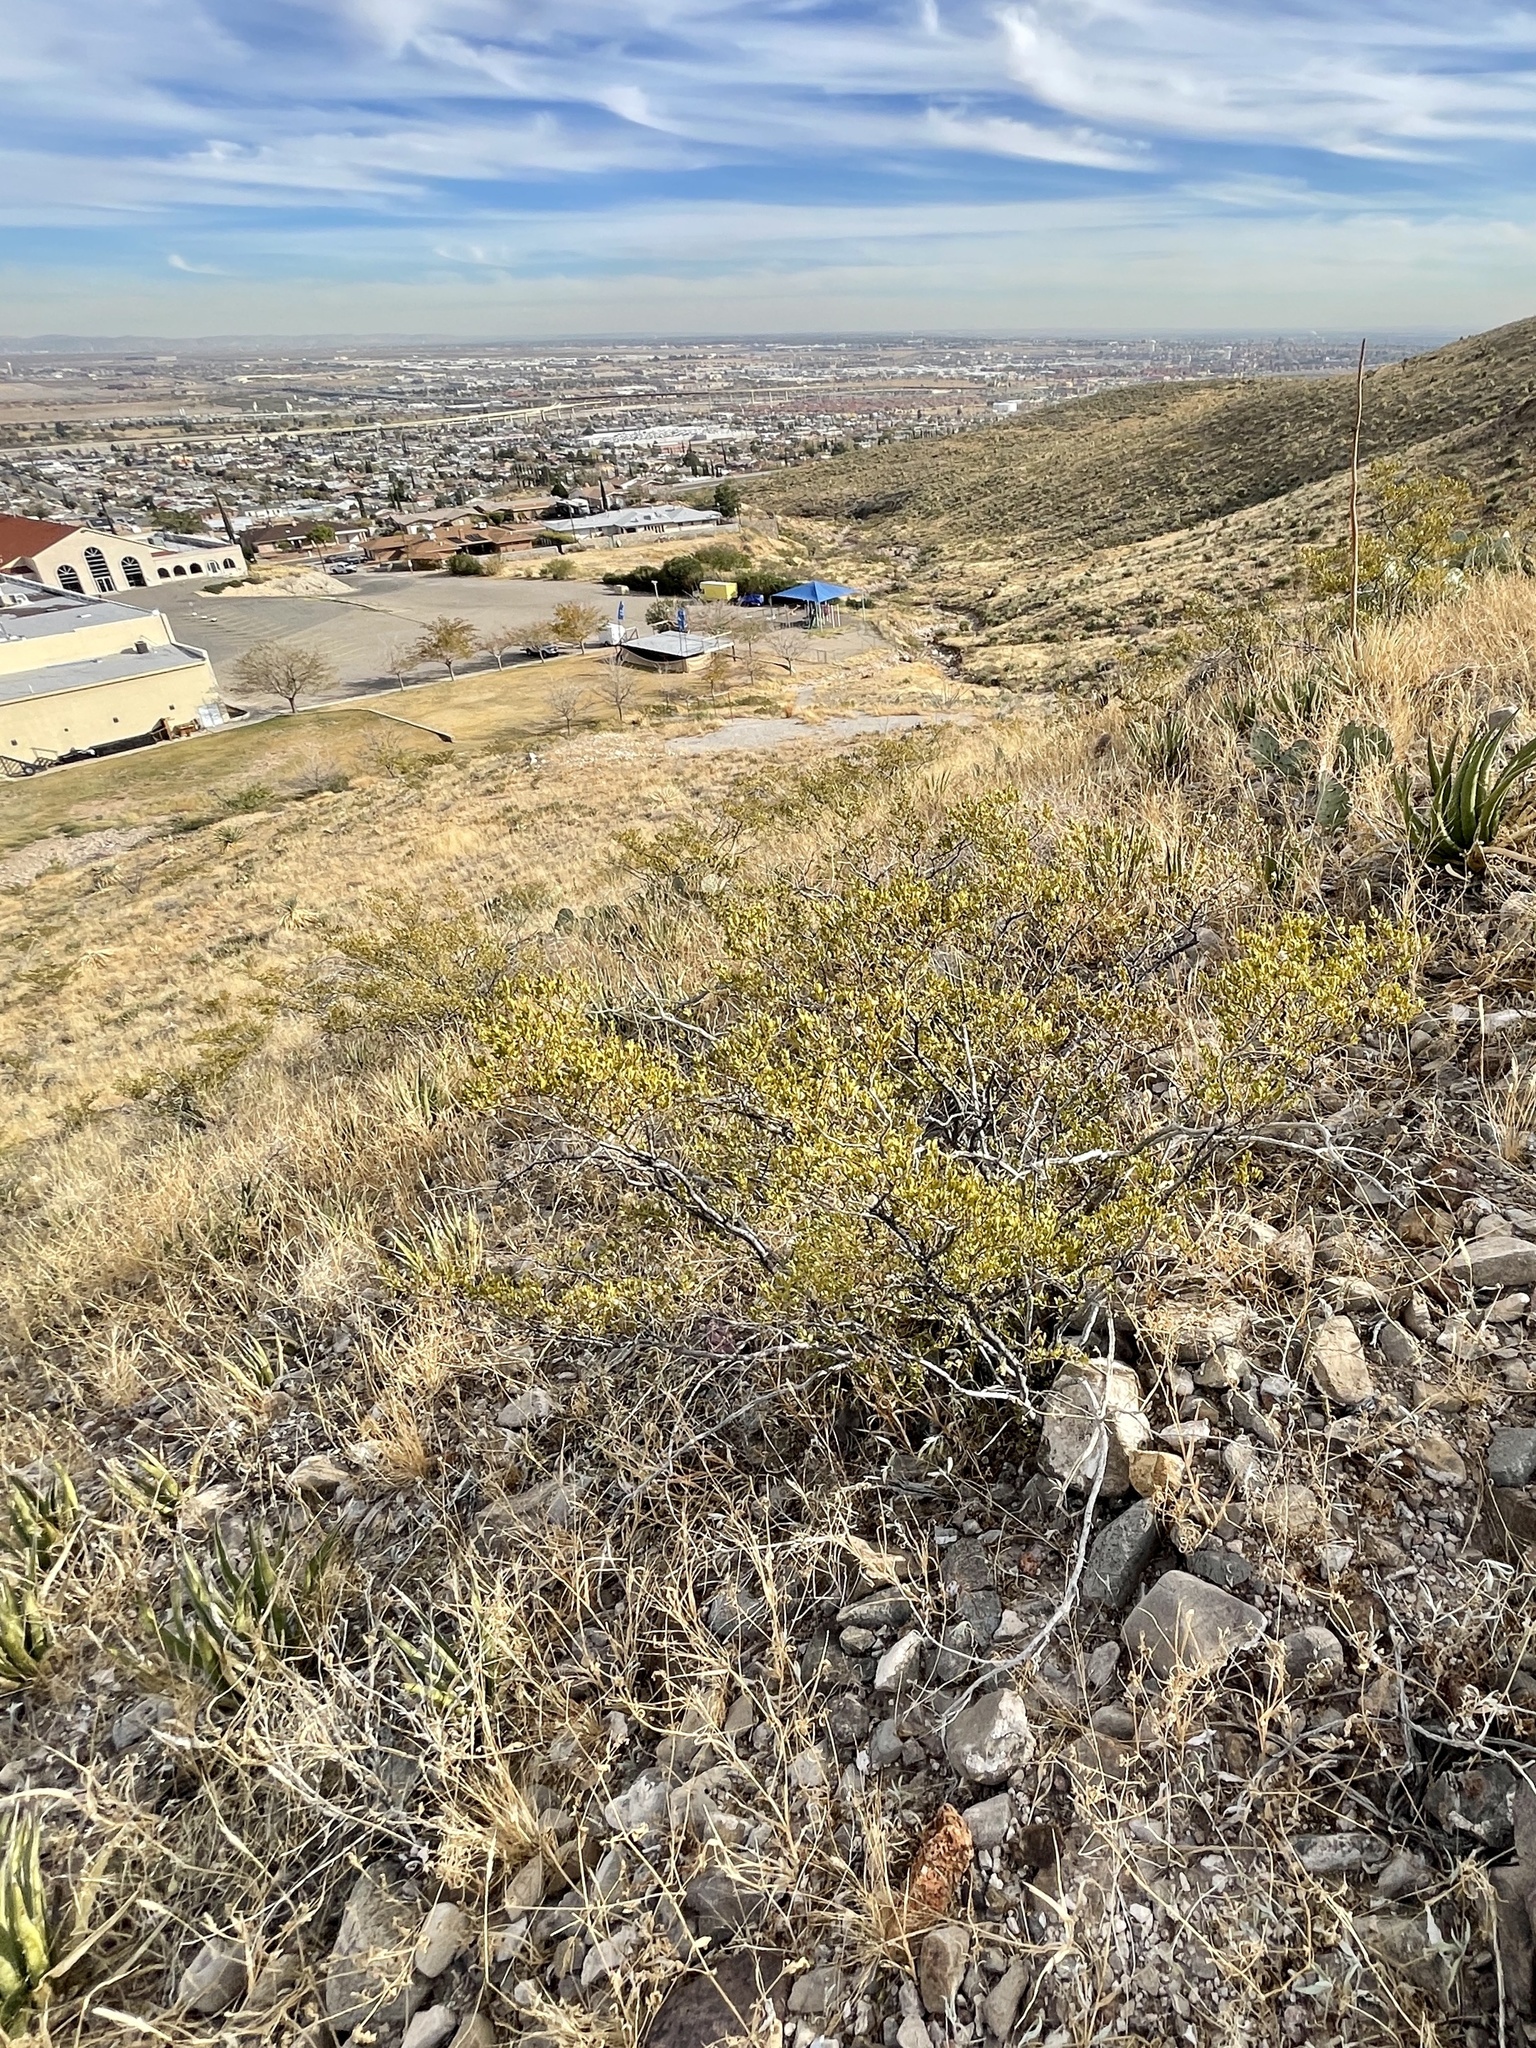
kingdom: Plantae
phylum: Tracheophyta
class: Magnoliopsida
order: Zygophyllales
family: Zygophyllaceae
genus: Larrea
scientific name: Larrea tridentata
